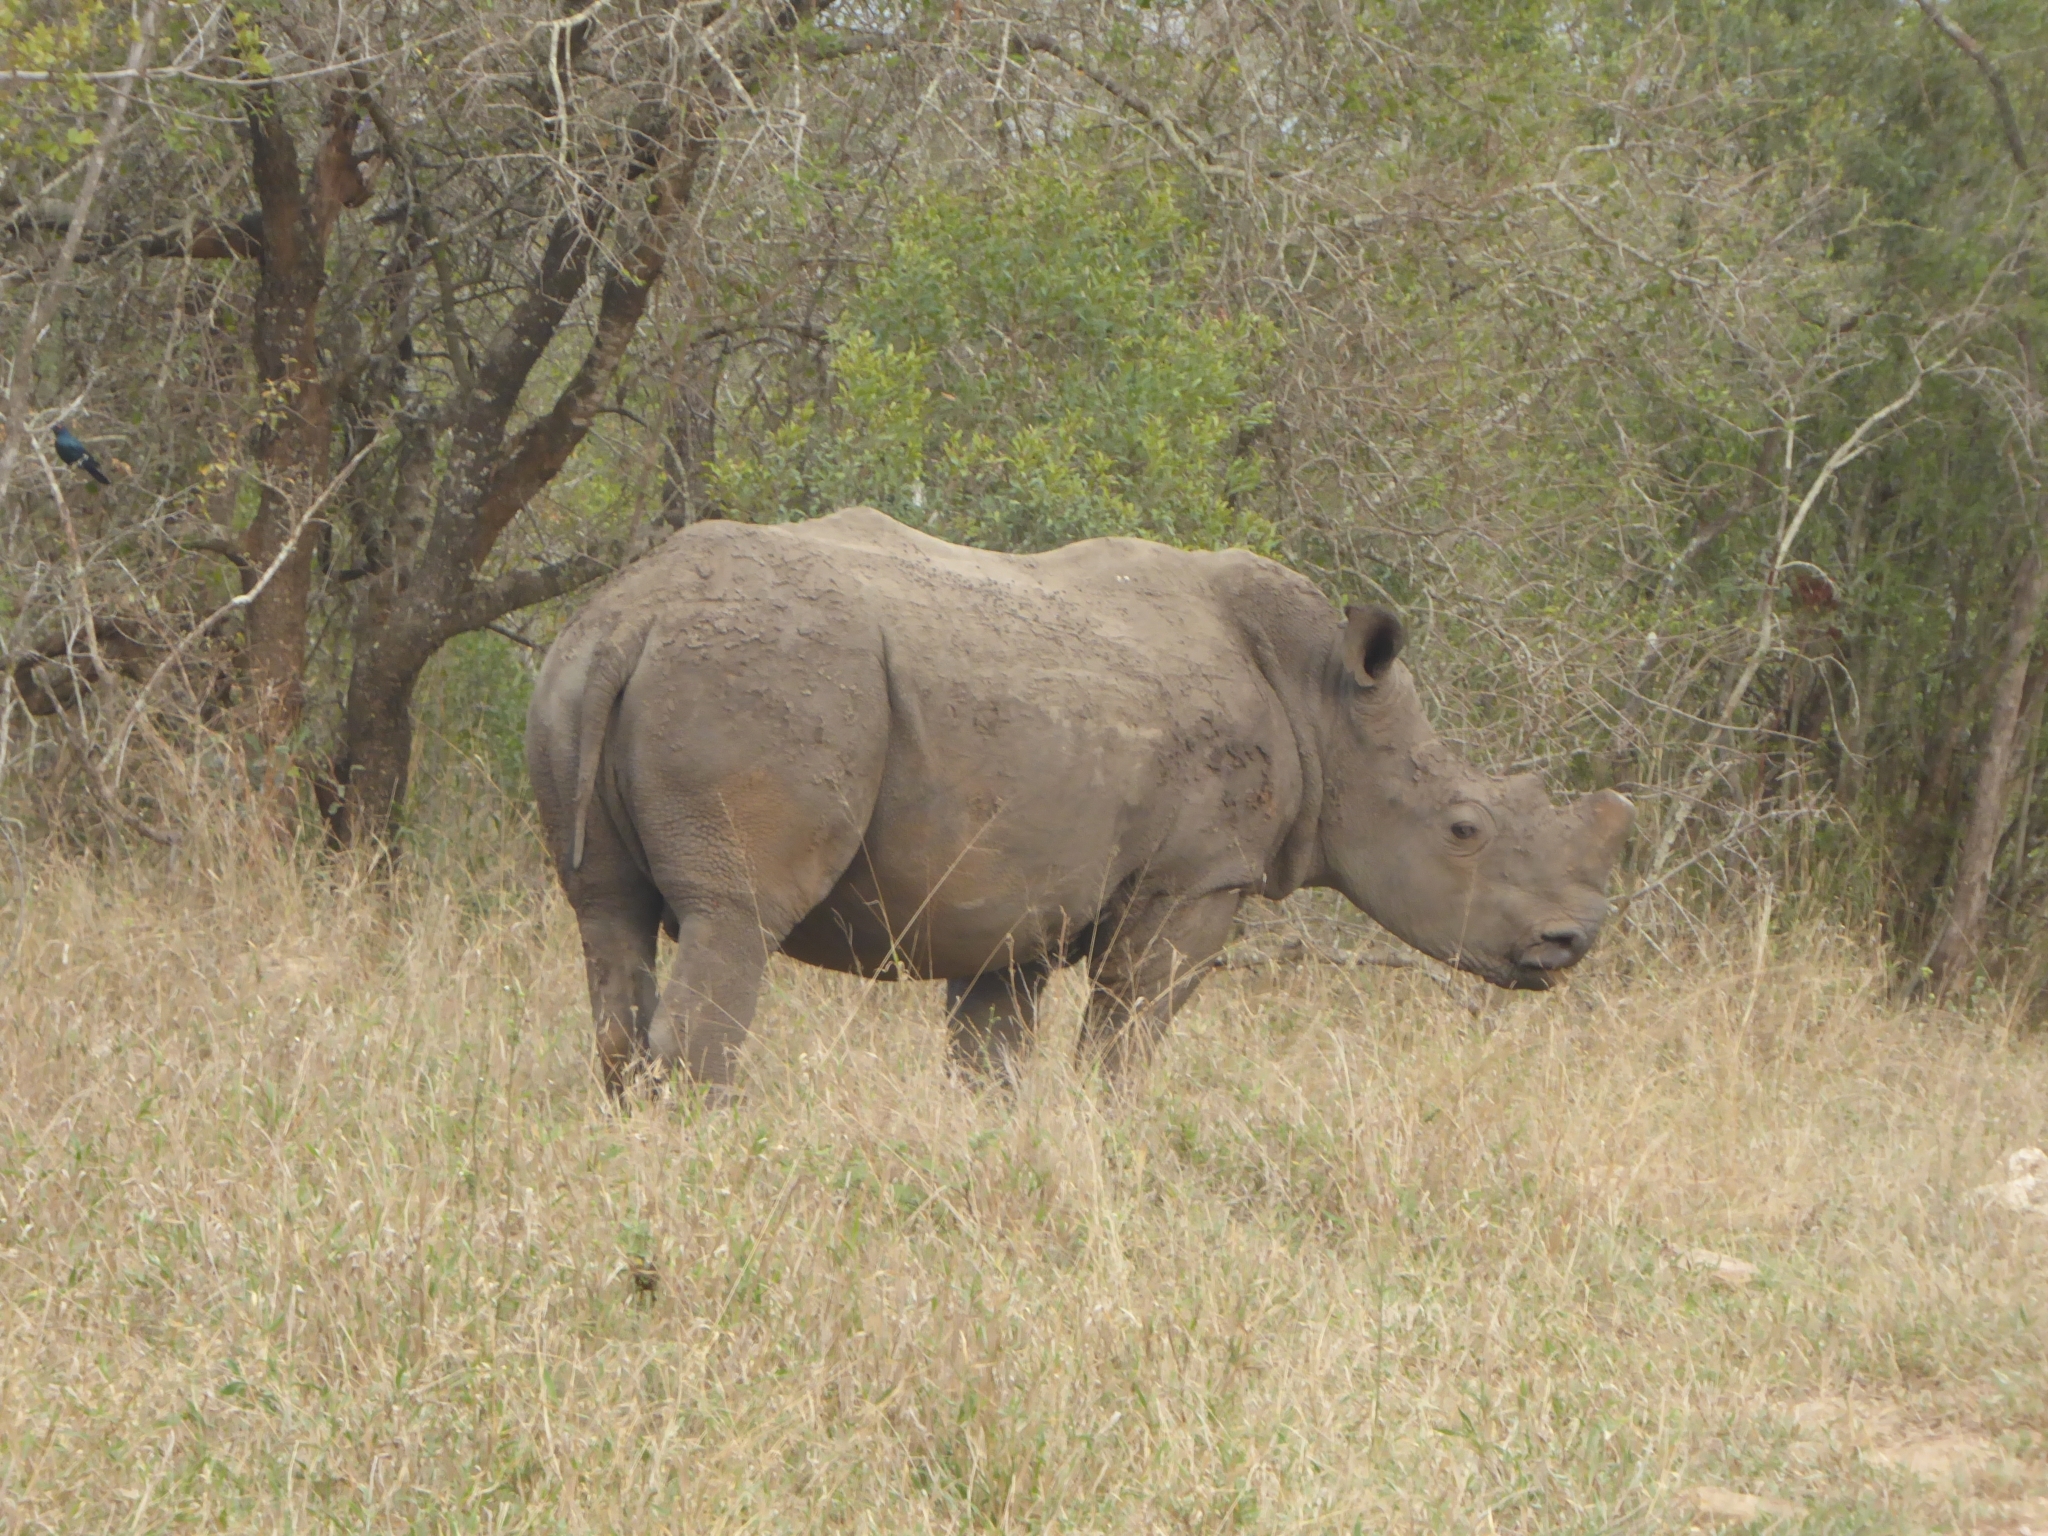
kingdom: Animalia
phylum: Chordata
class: Mammalia
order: Perissodactyla
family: Rhinocerotidae
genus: Ceratotherium
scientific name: Ceratotherium simum
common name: White rhinoceros
